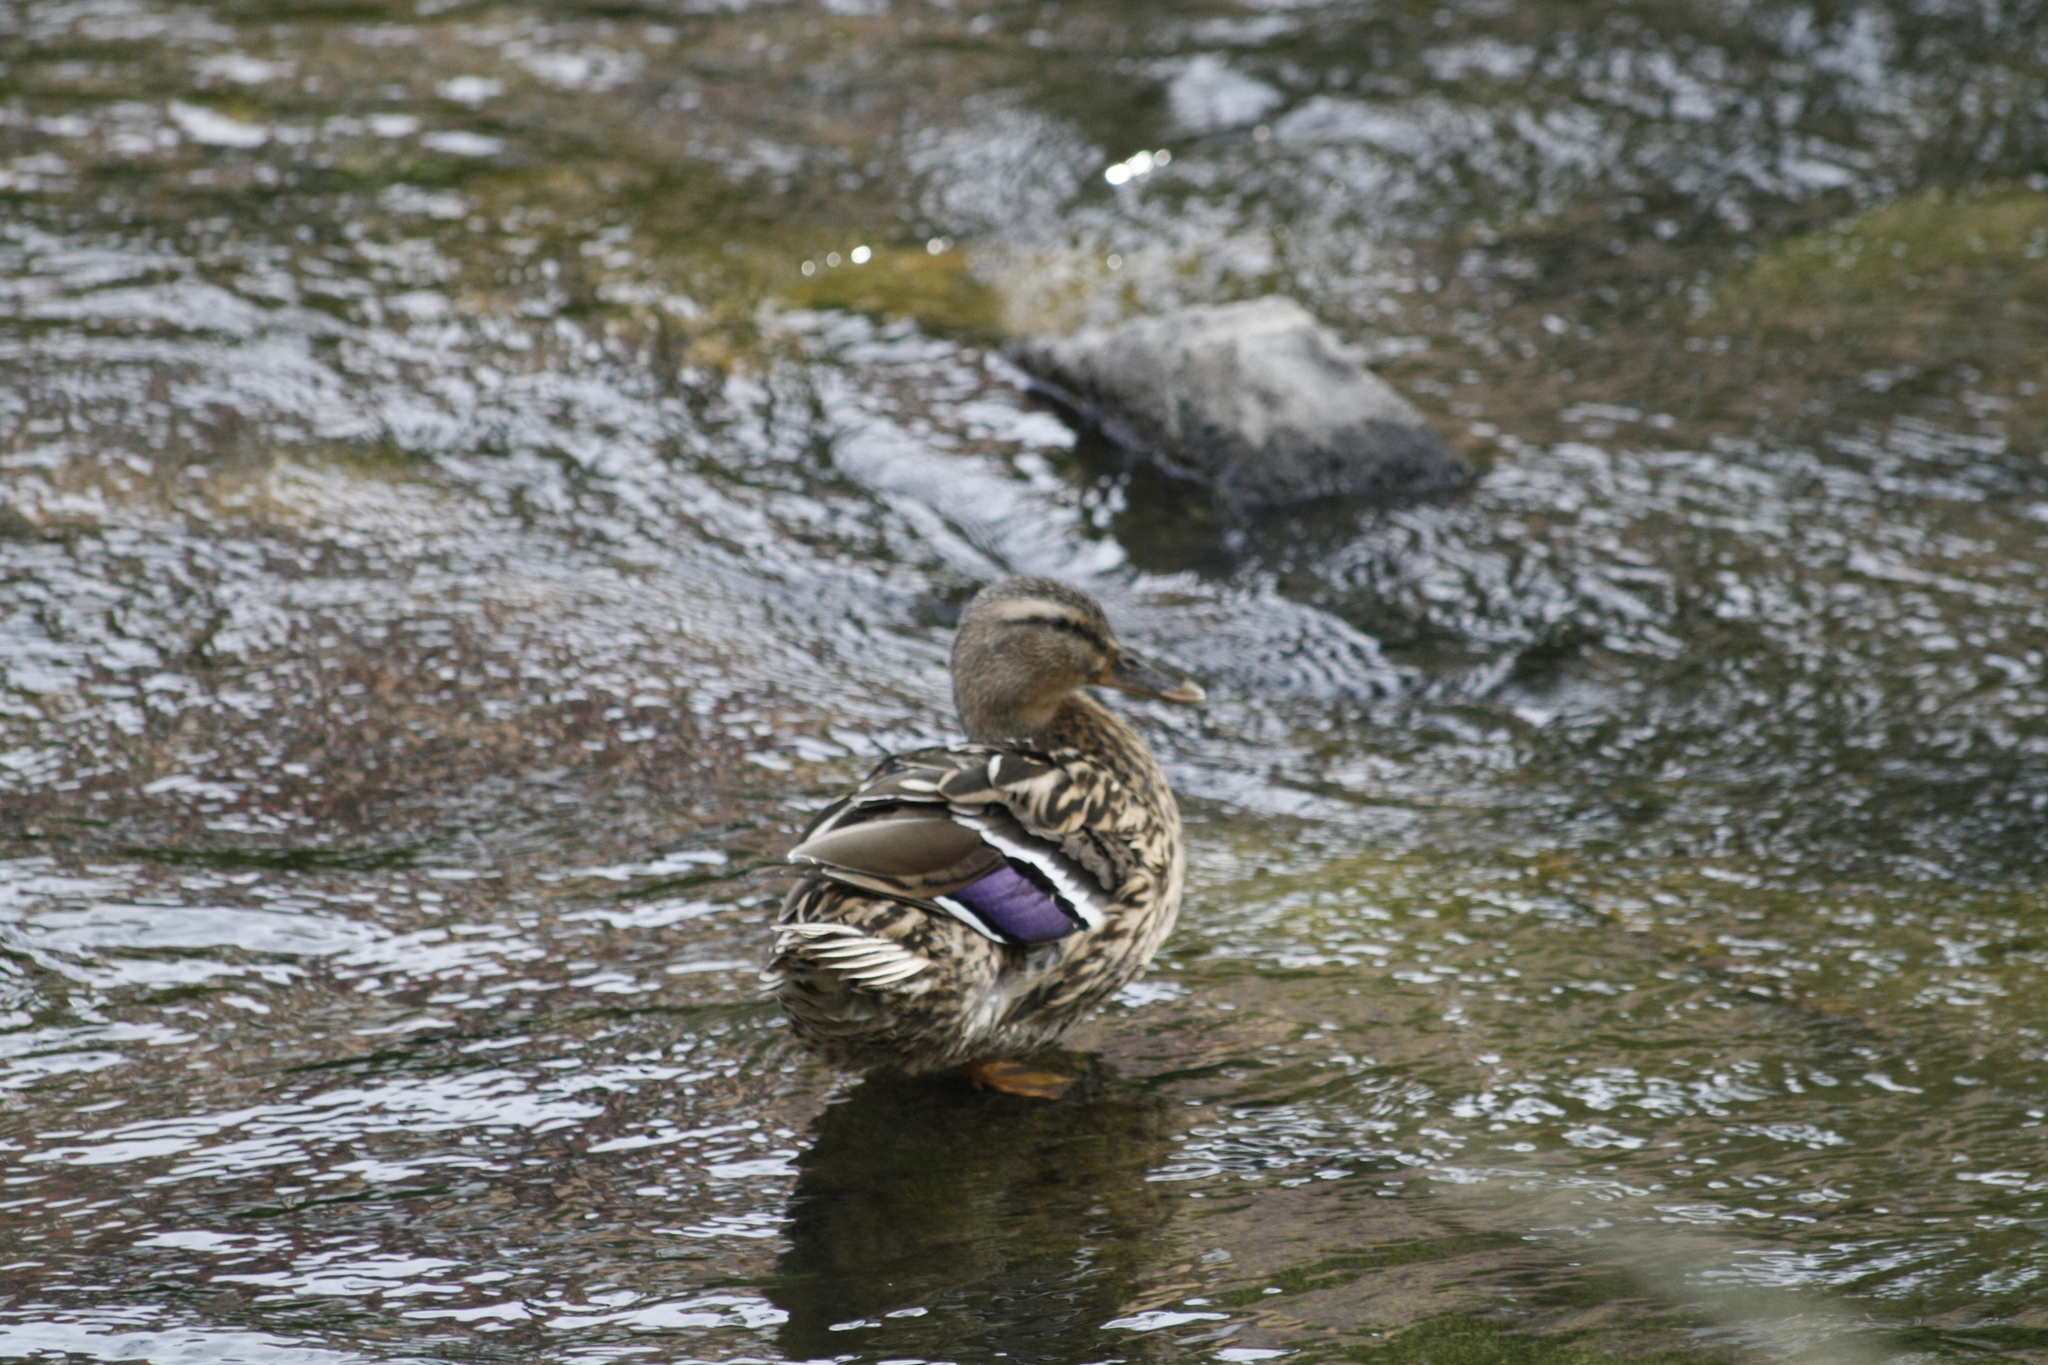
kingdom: Animalia
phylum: Chordata
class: Aves
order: Anseriformes
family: Anatidae
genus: Anas
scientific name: Anas platyrhynchos
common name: Mallard
